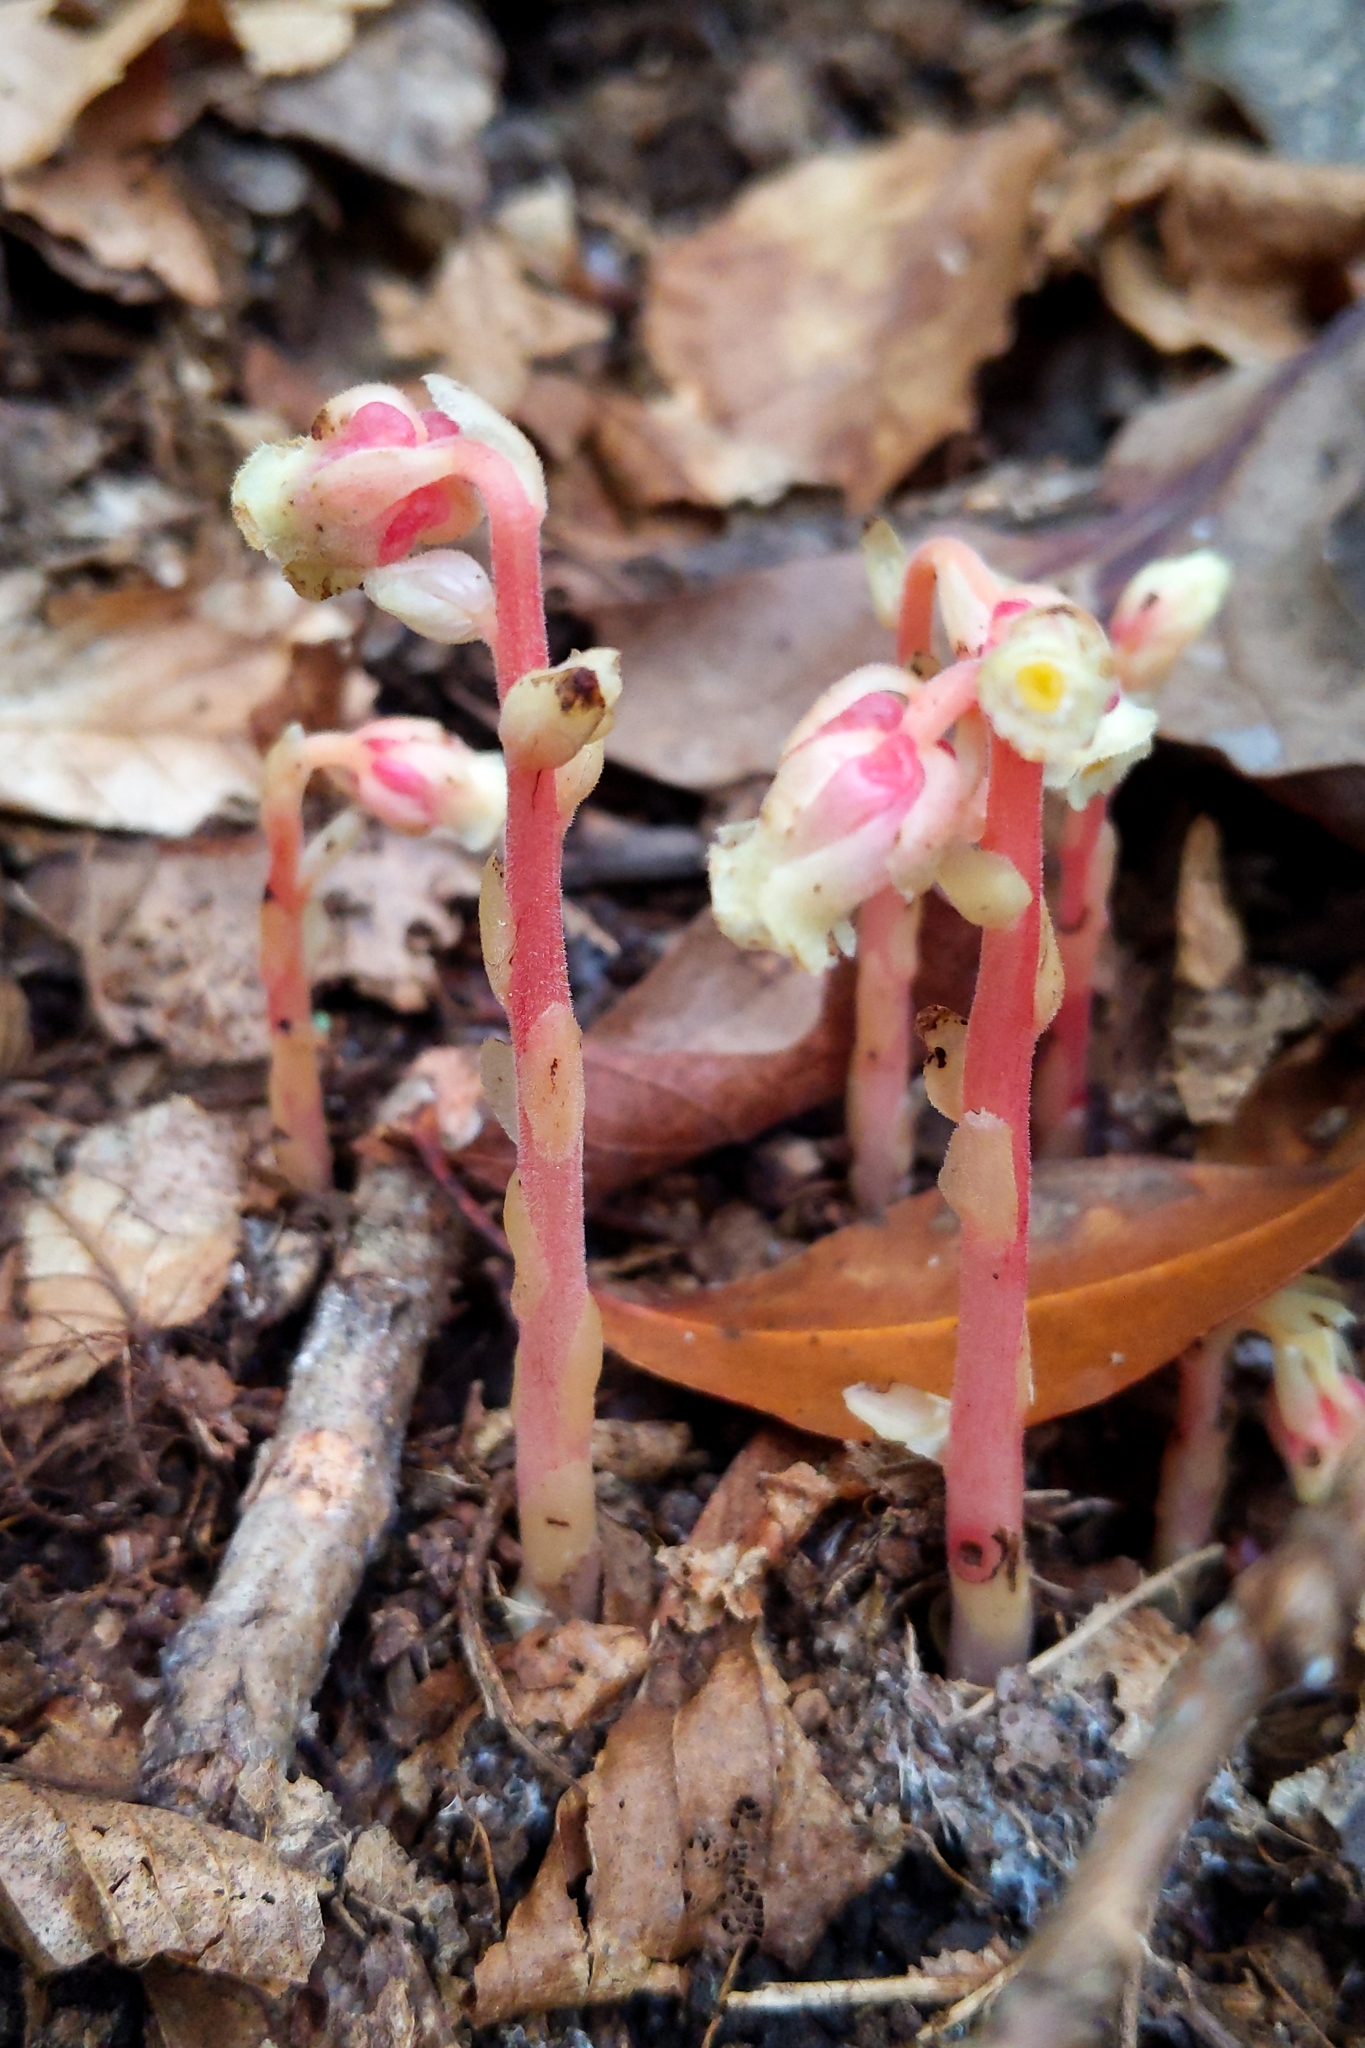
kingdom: Plantae
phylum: Tracheophyta
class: Magnoliopsida
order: Ericales
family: Ericaceae
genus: Hypopitys
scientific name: Hypopitys monotropa
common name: Yellow bird's-nest
